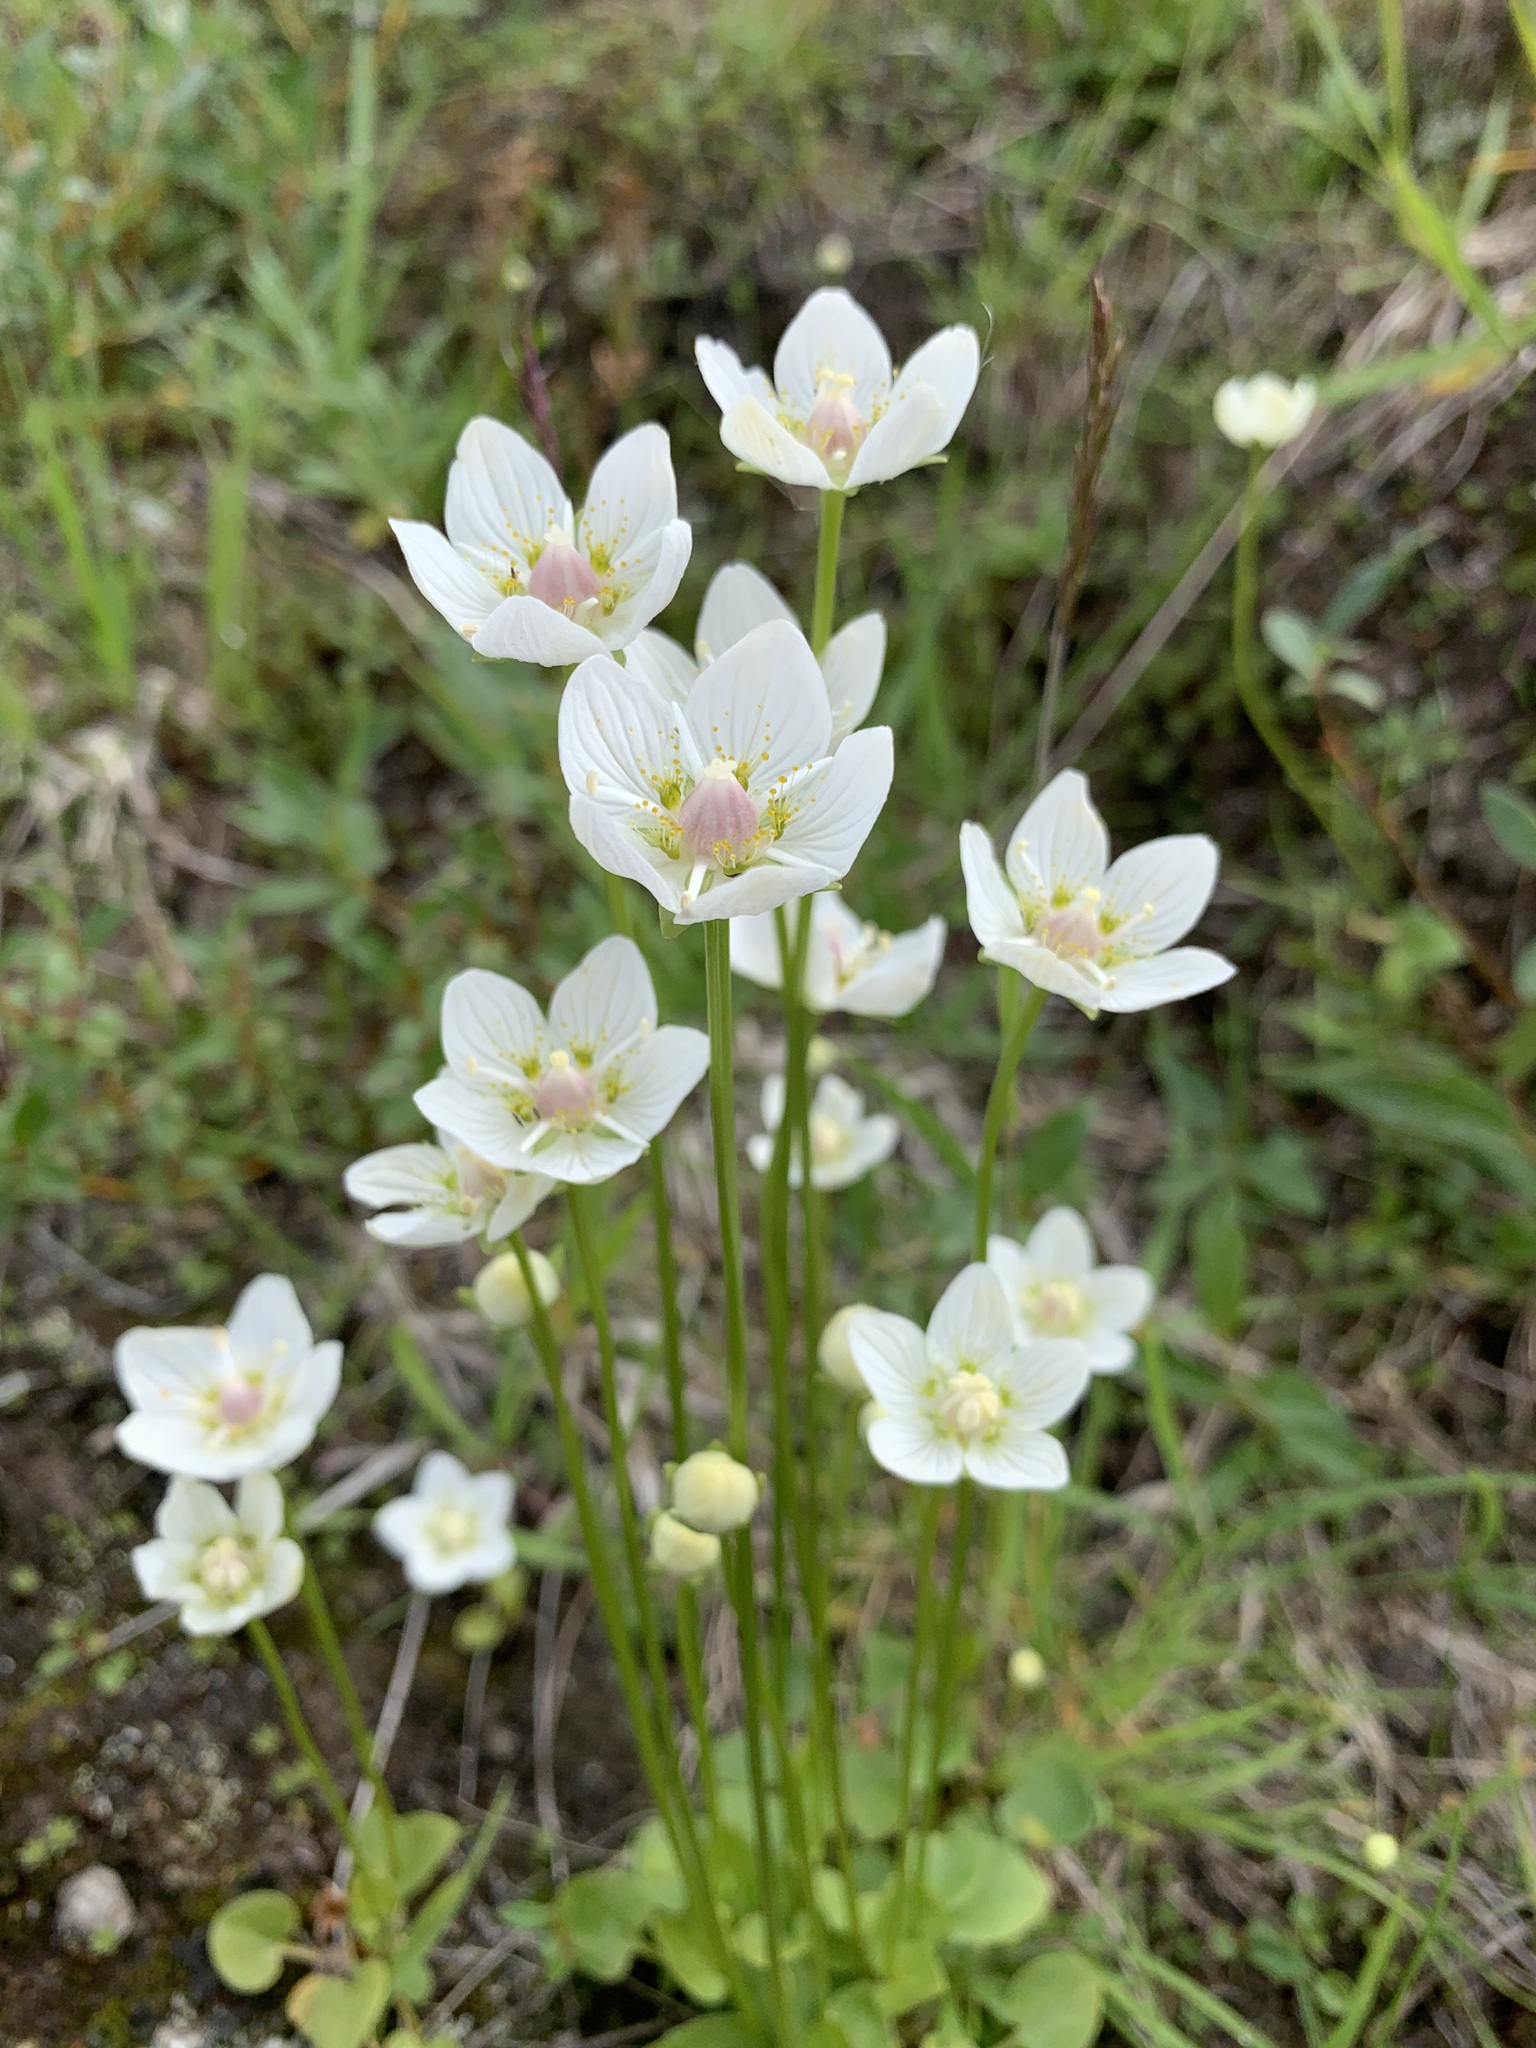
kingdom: Plantae
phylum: Tracheophyta
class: Magnoliopsida
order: Celastrales
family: Parnassiaceae
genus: Parnassia
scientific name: Parnassia palustris
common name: Grass-of-parnassus
